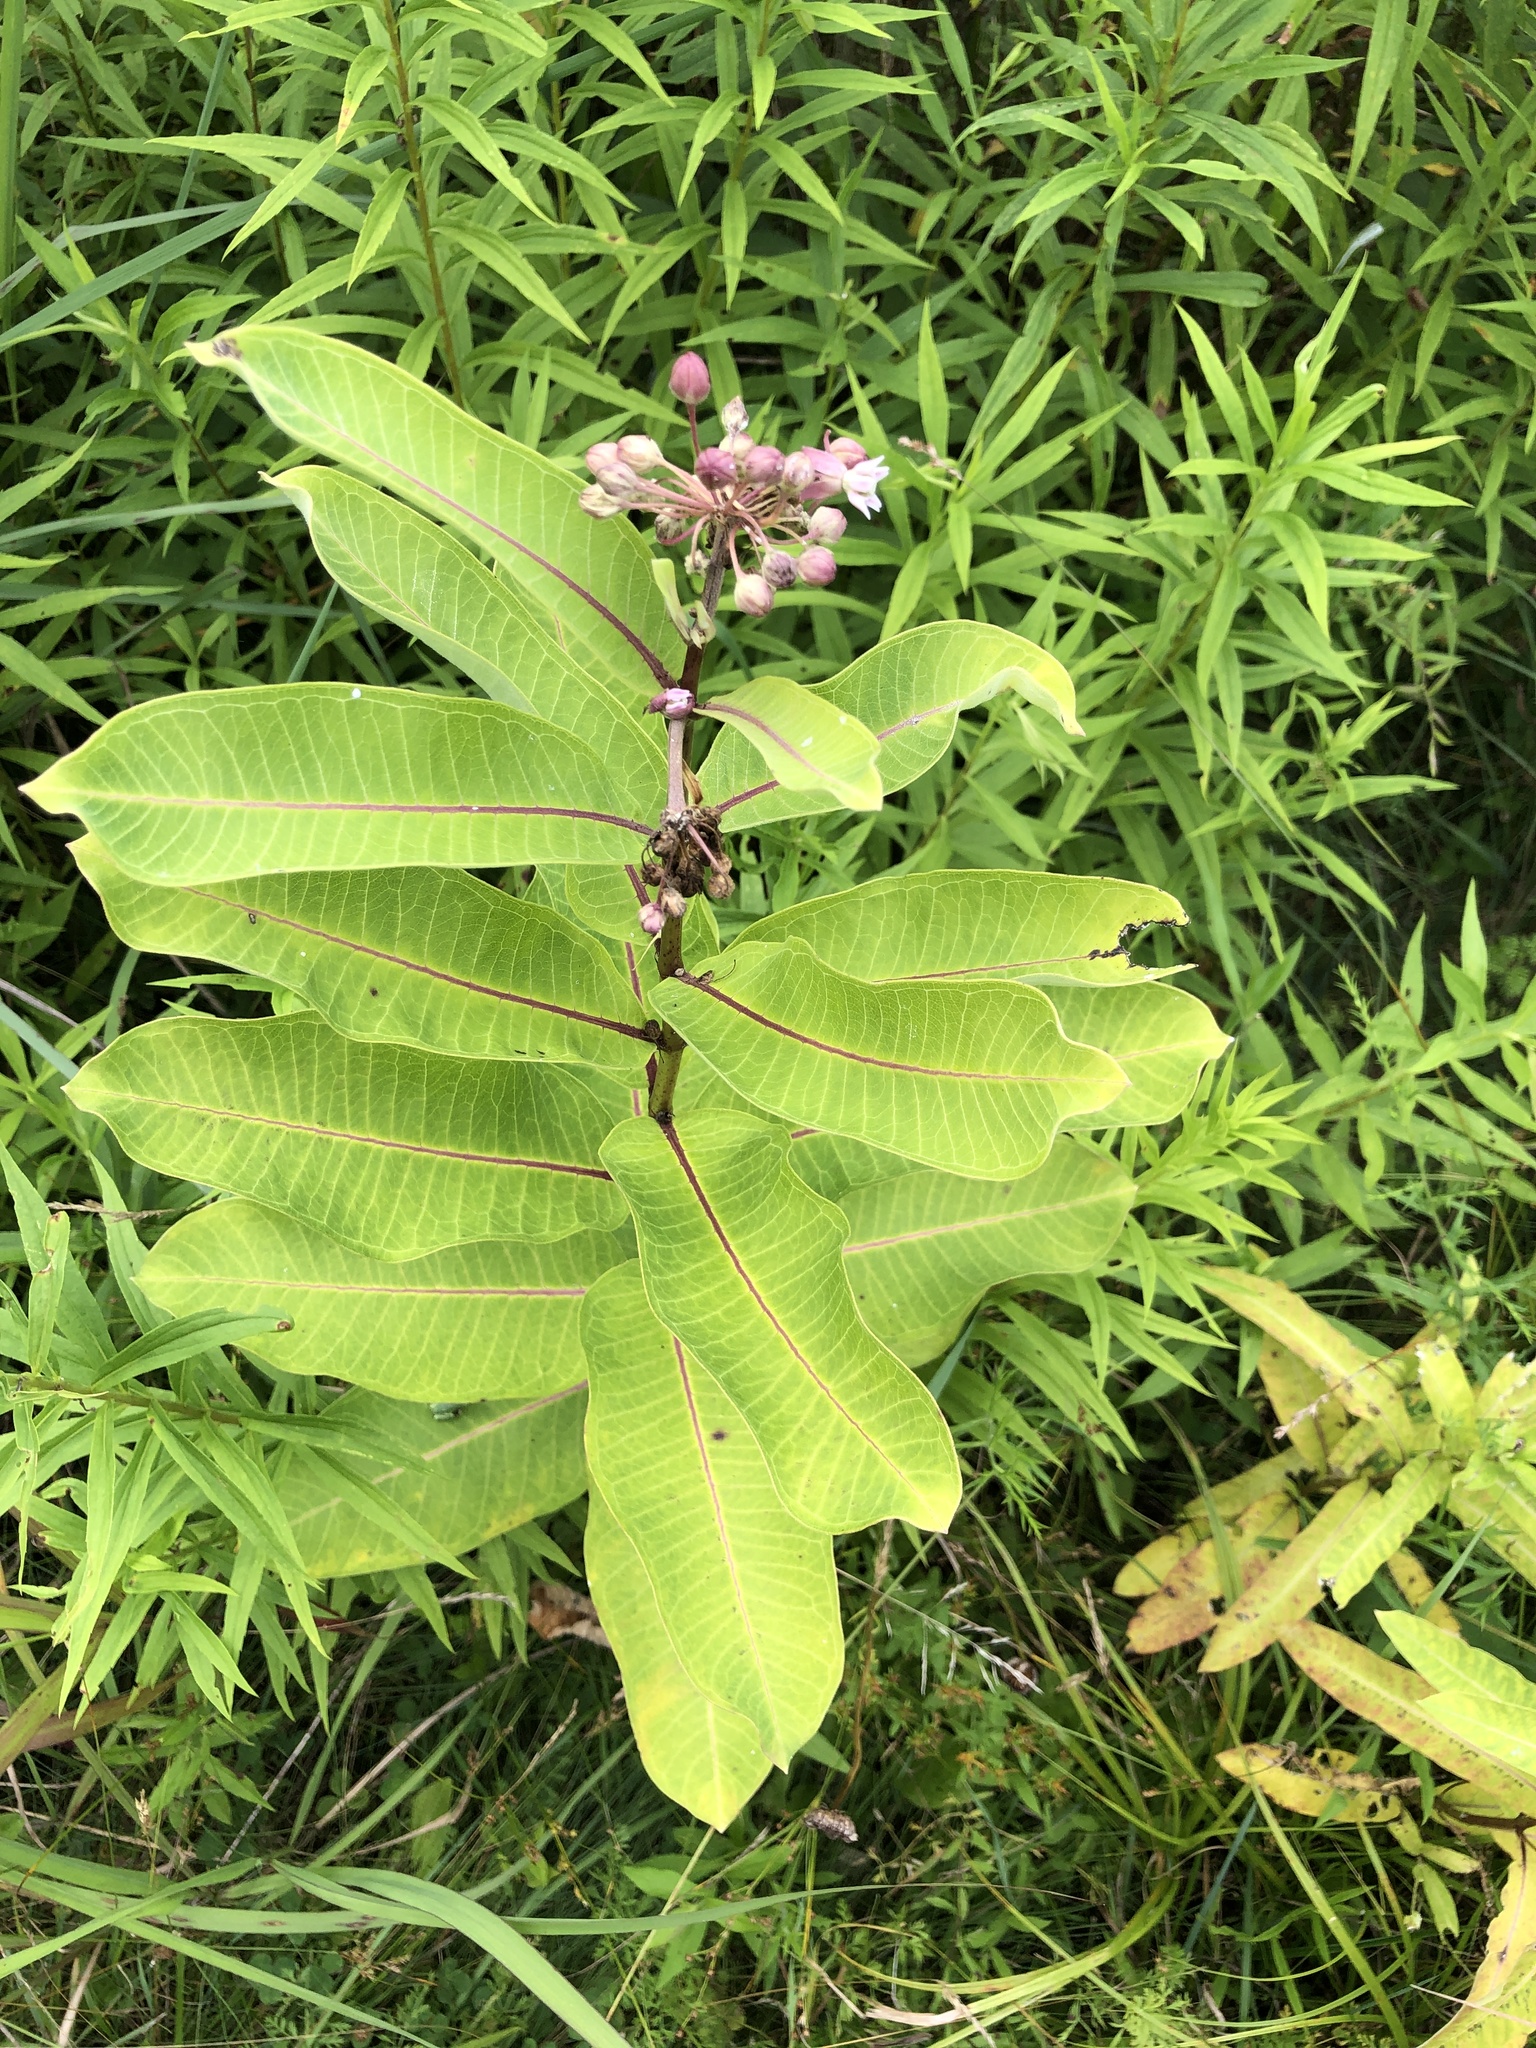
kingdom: Plantae
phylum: Tracheophyta
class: Magnoliopsida
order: Gentianales
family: Apocynaceae
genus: Asclepias
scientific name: Asclepias syriaca
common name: Common milkweed
